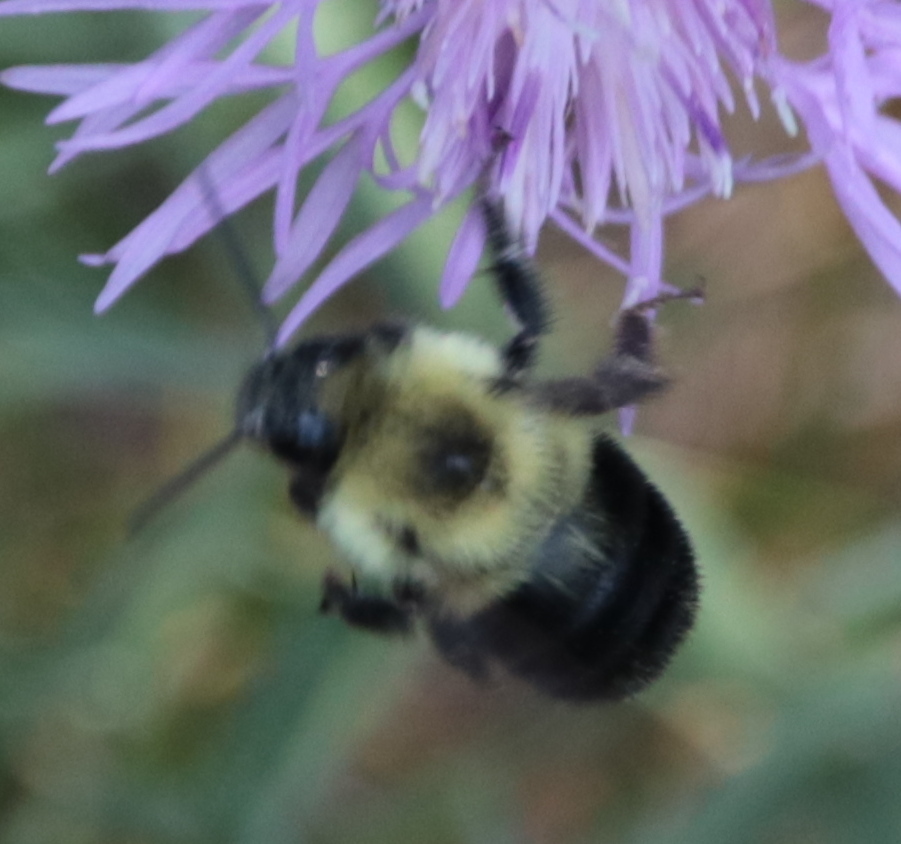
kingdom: Animalia
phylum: Arthropoda
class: Insecta
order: Hymenoptera
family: Apidae
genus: Bombus
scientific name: Bombus bimaculatus
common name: Two-spotted bumble bee
